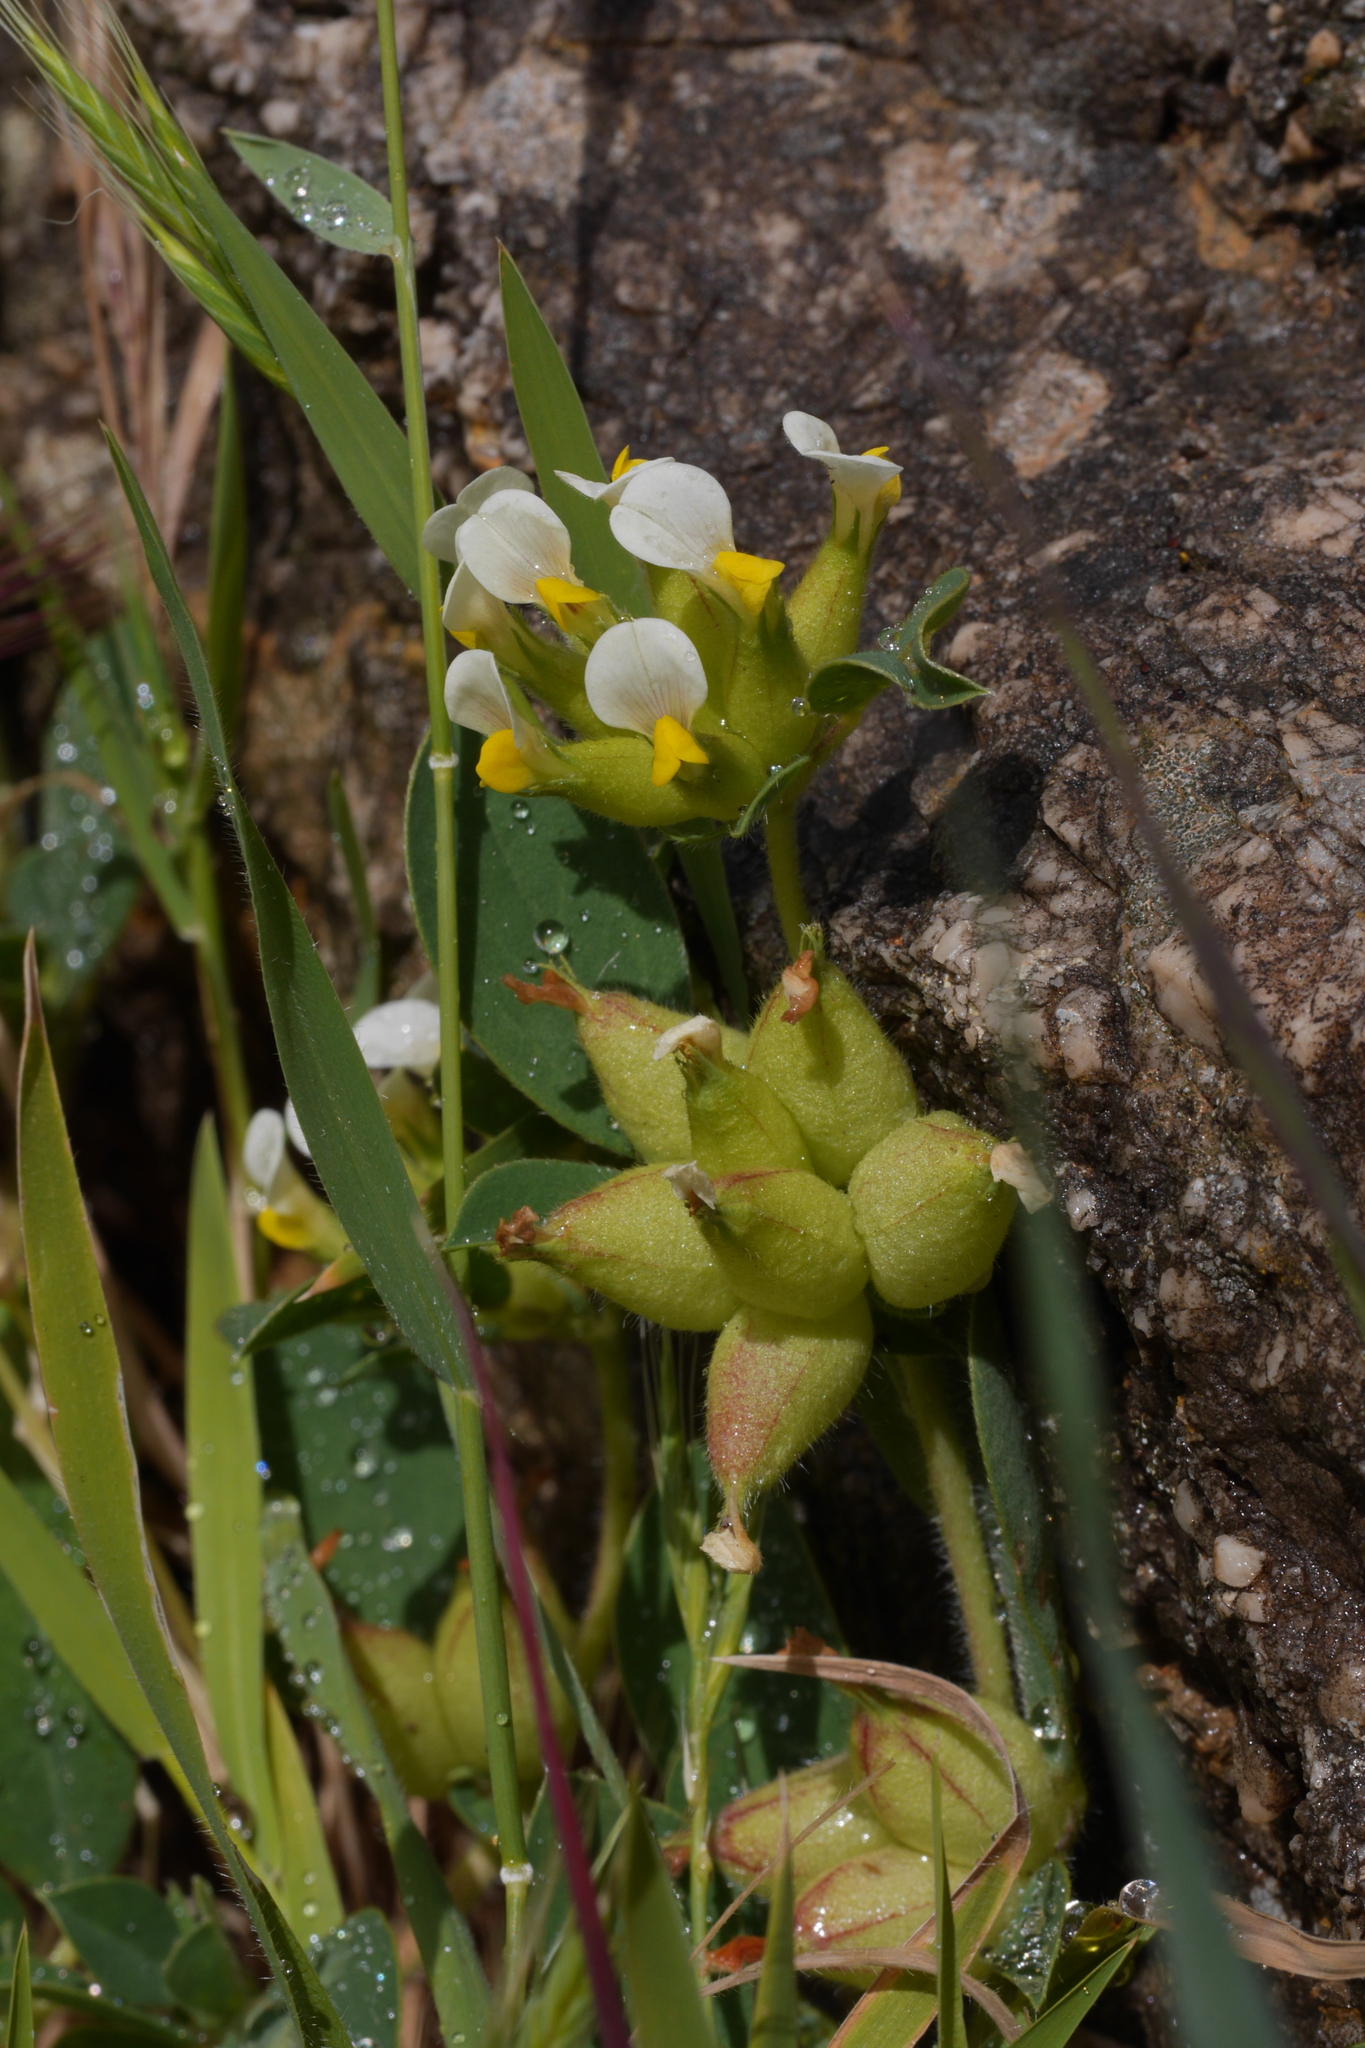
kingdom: Plantae
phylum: Tracheophyta
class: Magnoliopsida
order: Fabales
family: Fabaceae
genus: Tripodion
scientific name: Tripodion tetraphyllum
